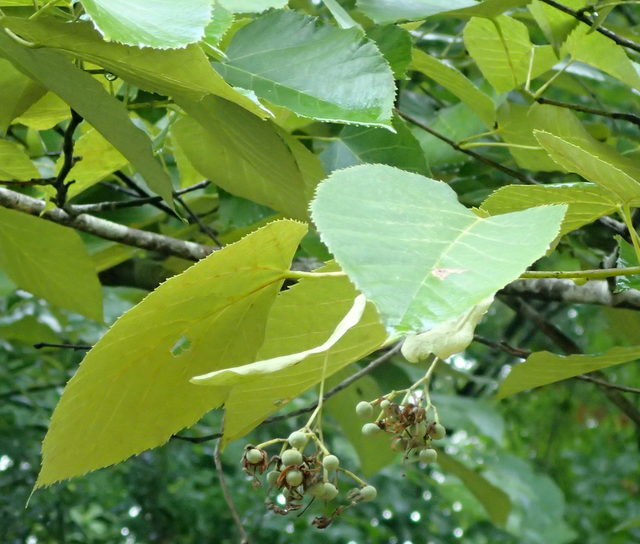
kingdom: Plantae
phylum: Tracheophyta
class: Magnoliopsida
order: Malvales
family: Malvaceae
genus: Tilia
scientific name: Tilia americana
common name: Basswood
